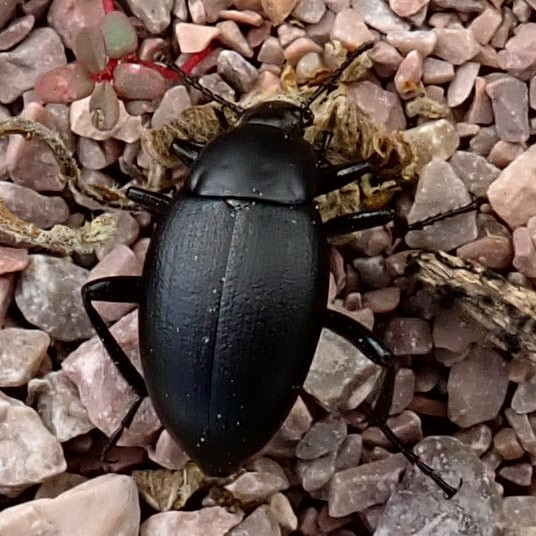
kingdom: Animalia
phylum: Arthropoda
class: Insecta
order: Coleoptera
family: Tenebrionidae
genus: Eleodes
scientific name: Eleodes fusiformis
